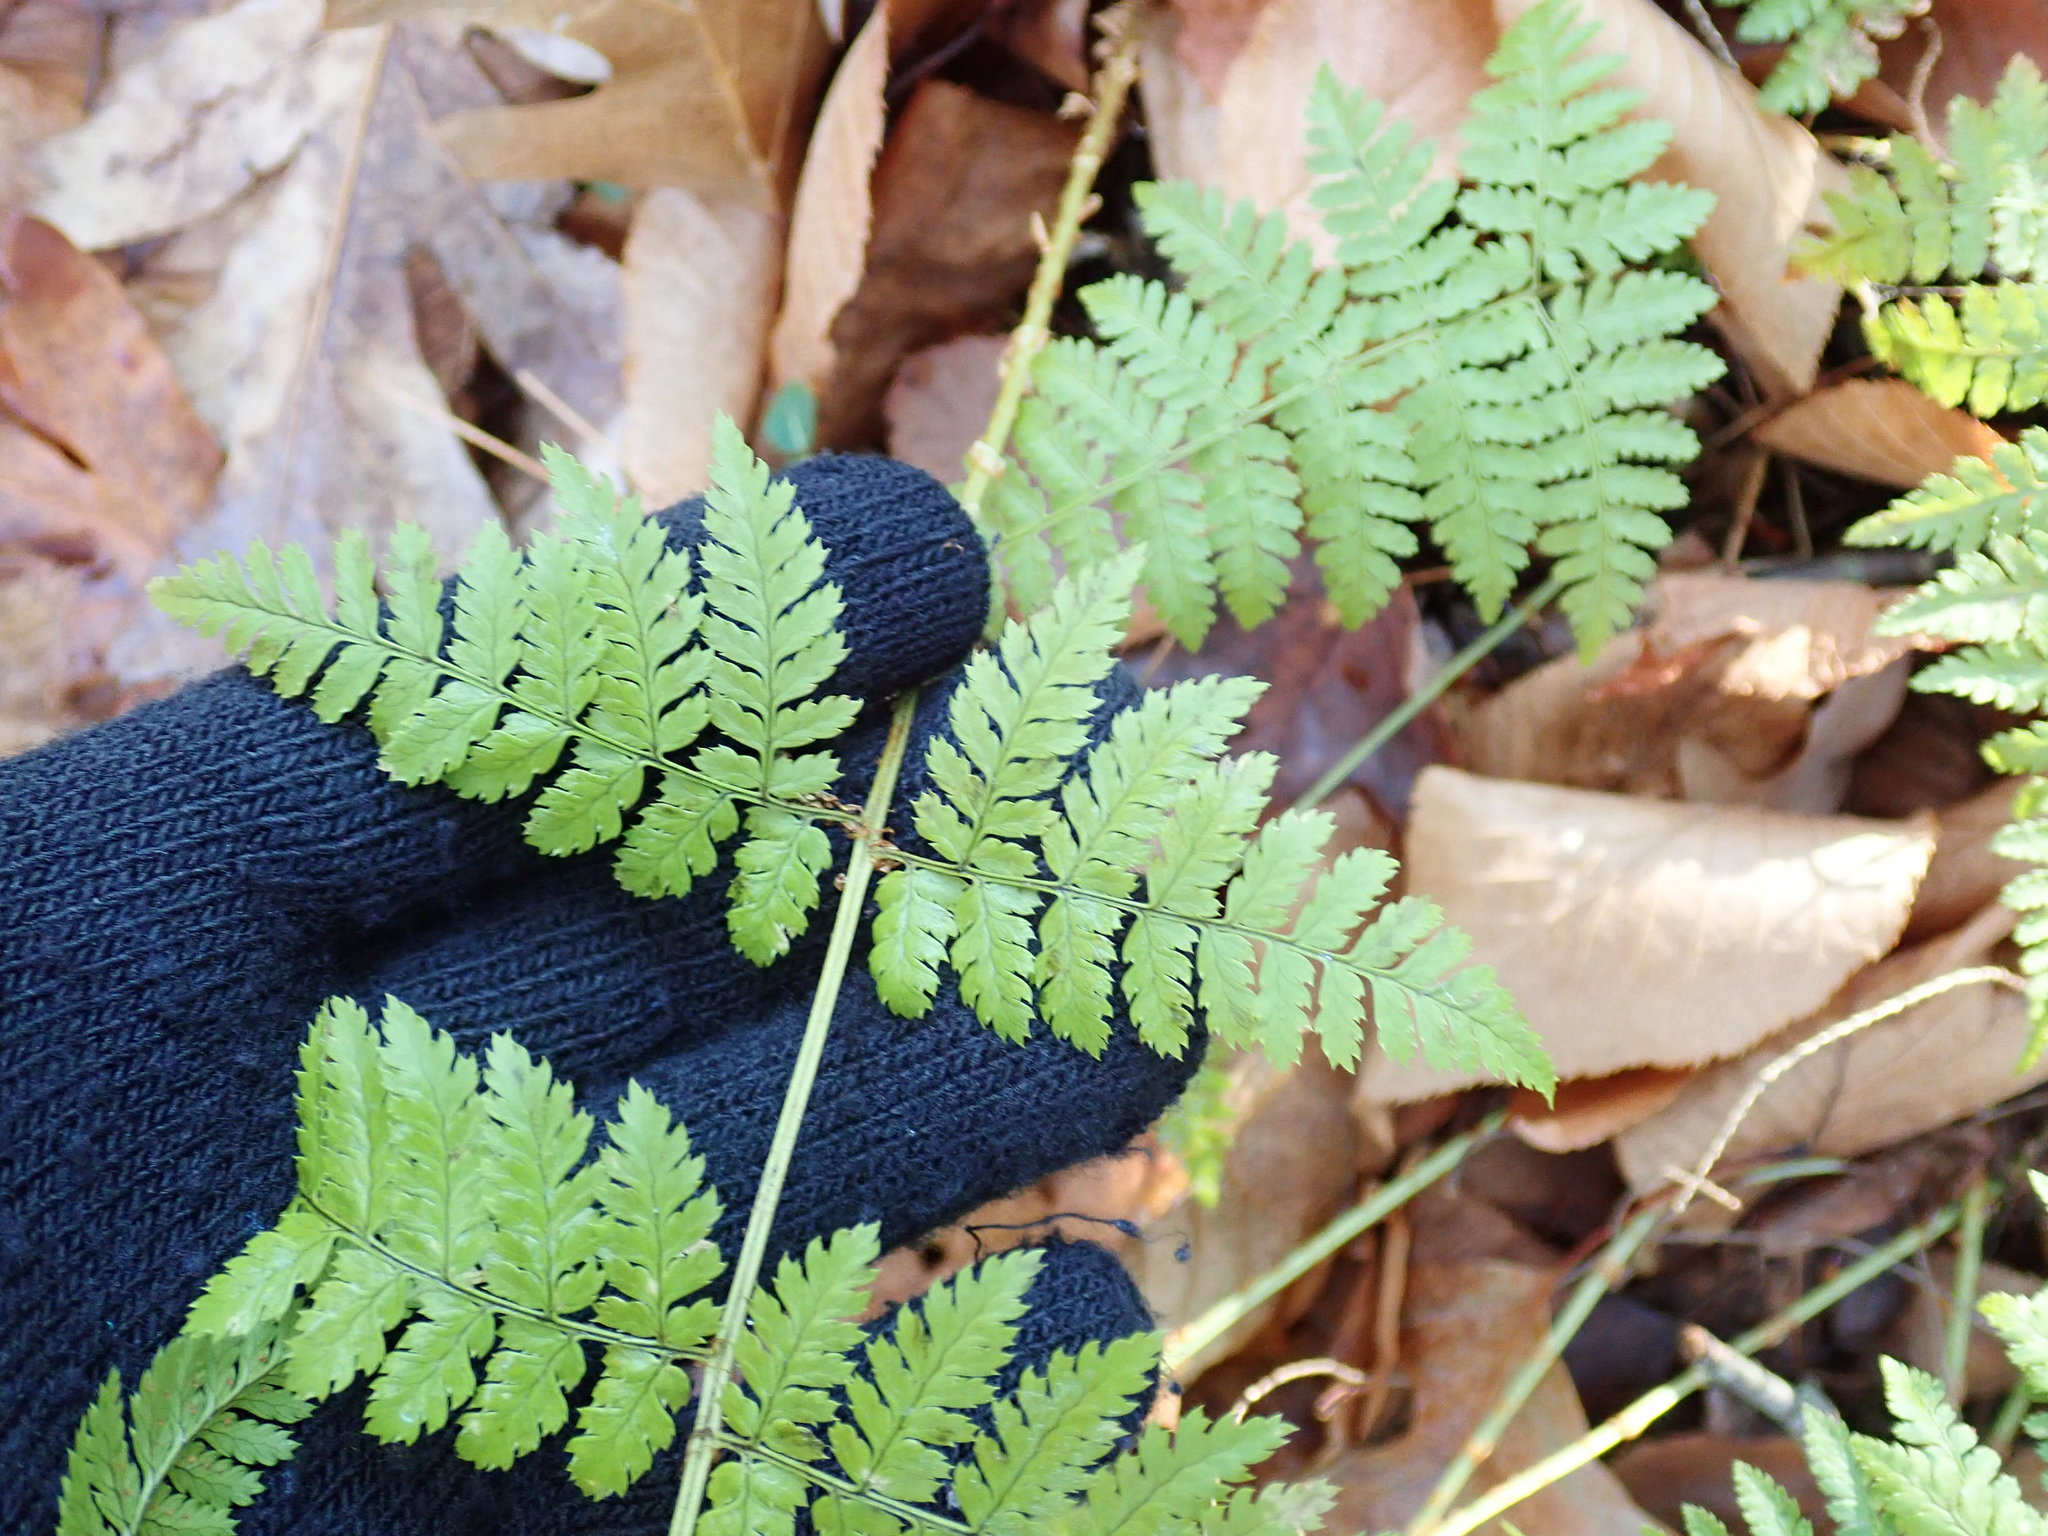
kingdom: Plantae
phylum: Tracheophyta
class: Polypodiopsida
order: Polypodiales
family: Dryopteridaceae
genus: Dryopteris
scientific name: Dryopteris intermedia
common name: Evergreen wood fern
